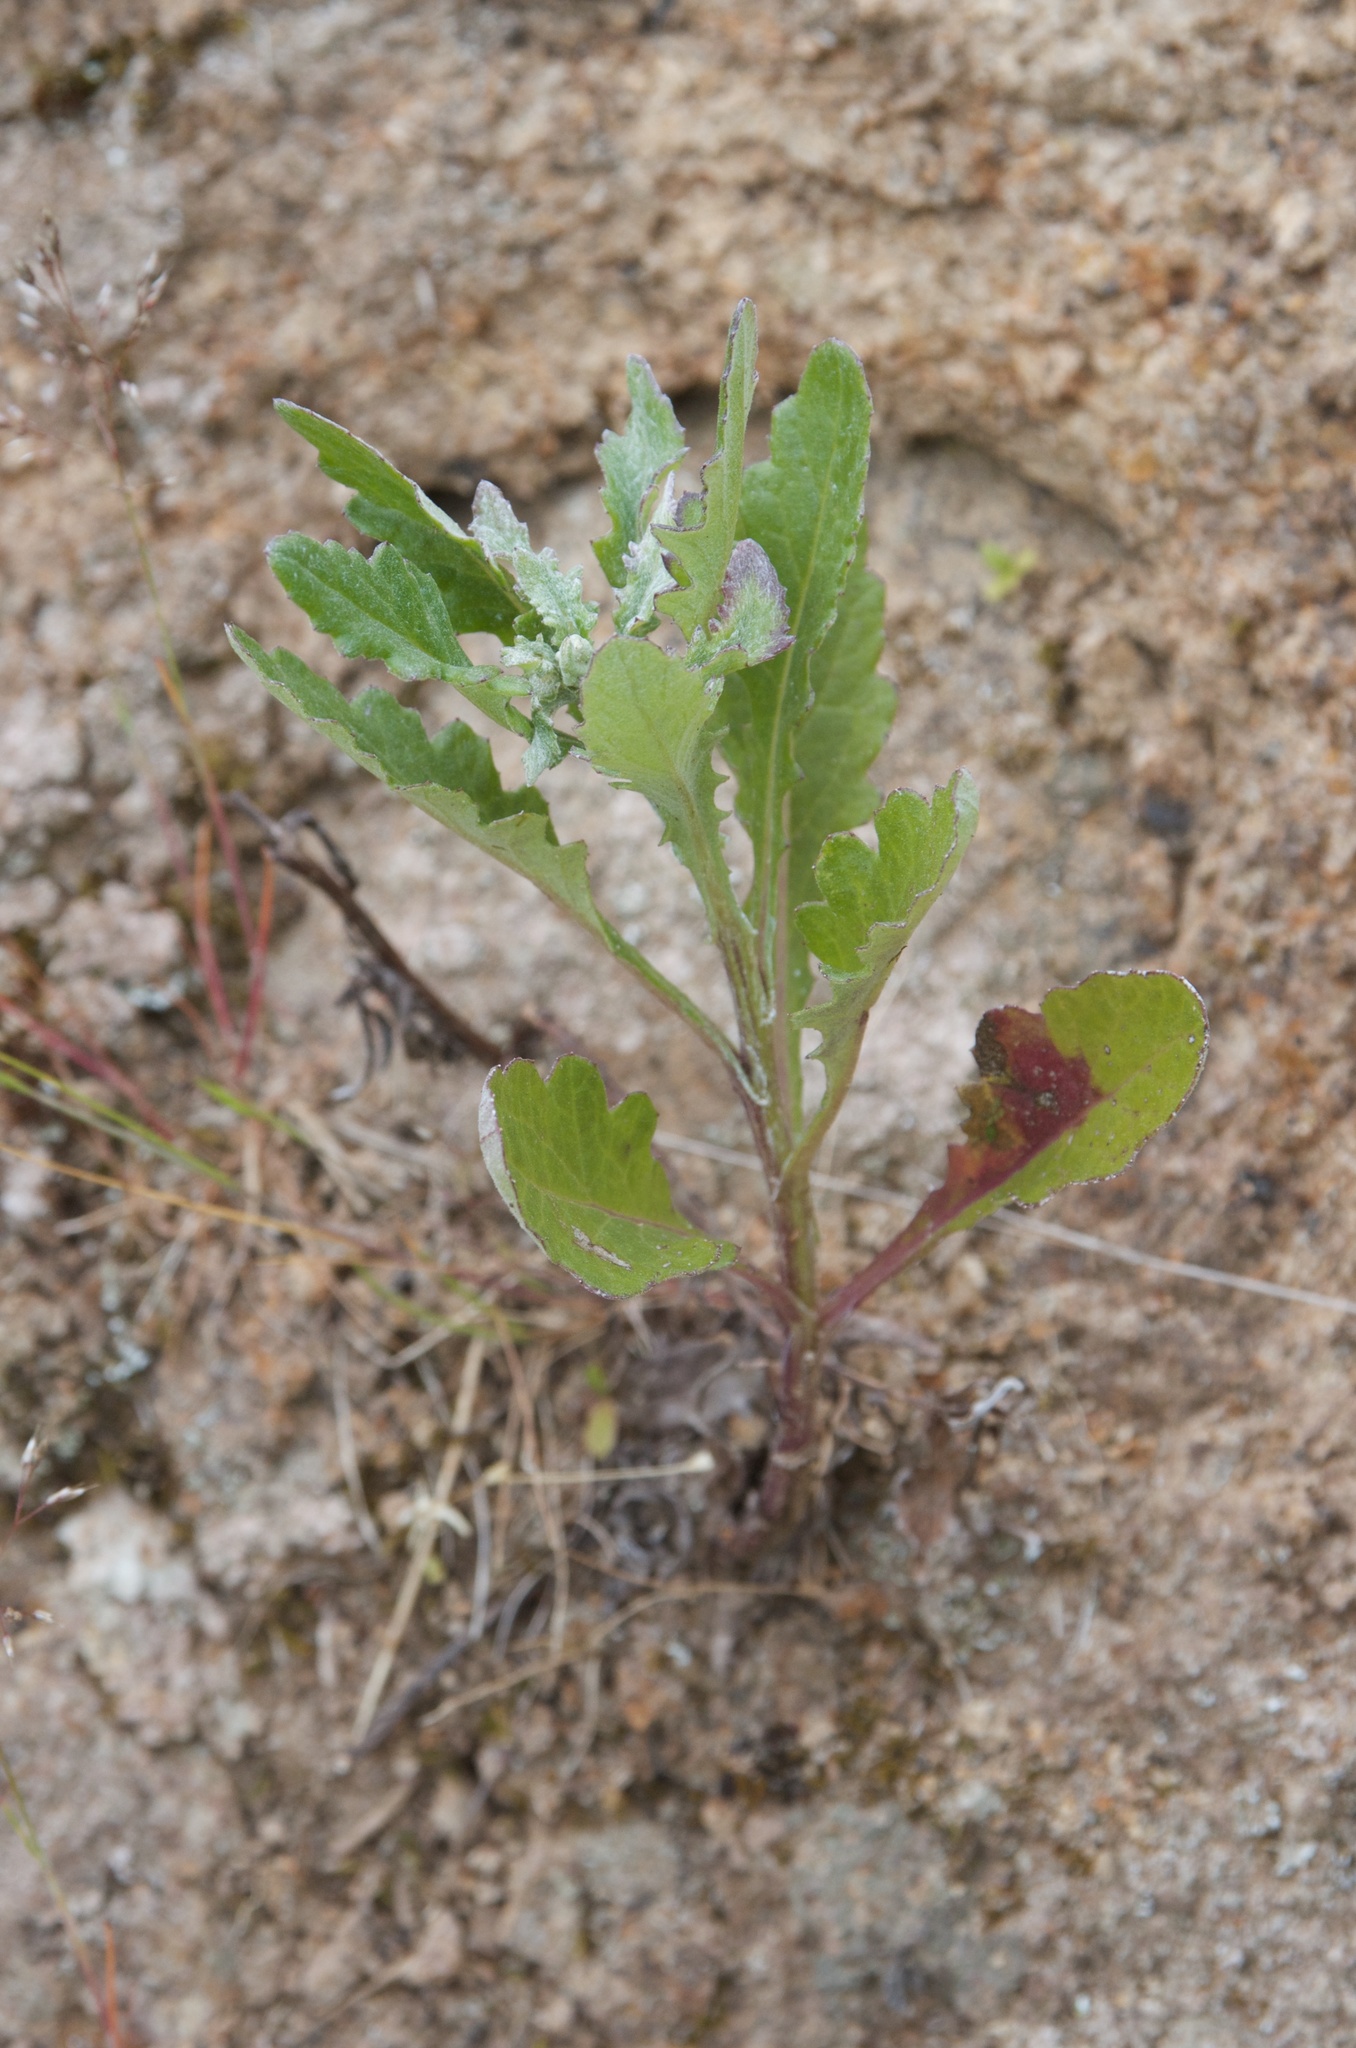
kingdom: Plantae
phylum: Tracheophyta
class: Magnoliopsida
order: Asterales
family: Asteraceae
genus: Senecio
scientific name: Senecio glomeratus
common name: Cutleaf burnweed
